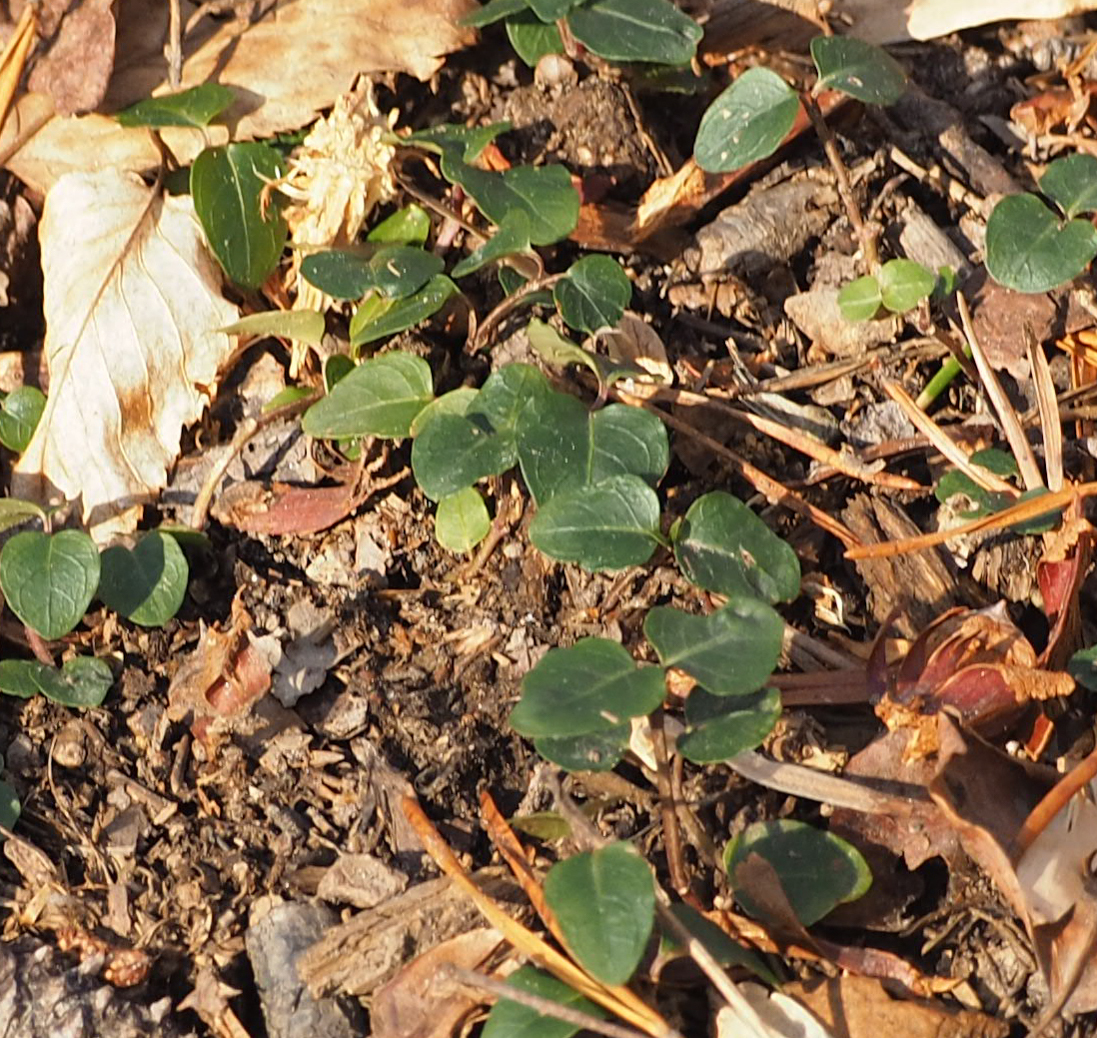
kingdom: Plantae
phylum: Tracheophyta
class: Magnoliopsida
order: Gentianales
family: Rubiaceae
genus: Mitchella
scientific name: Mitchella repens
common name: Partridge-berry
